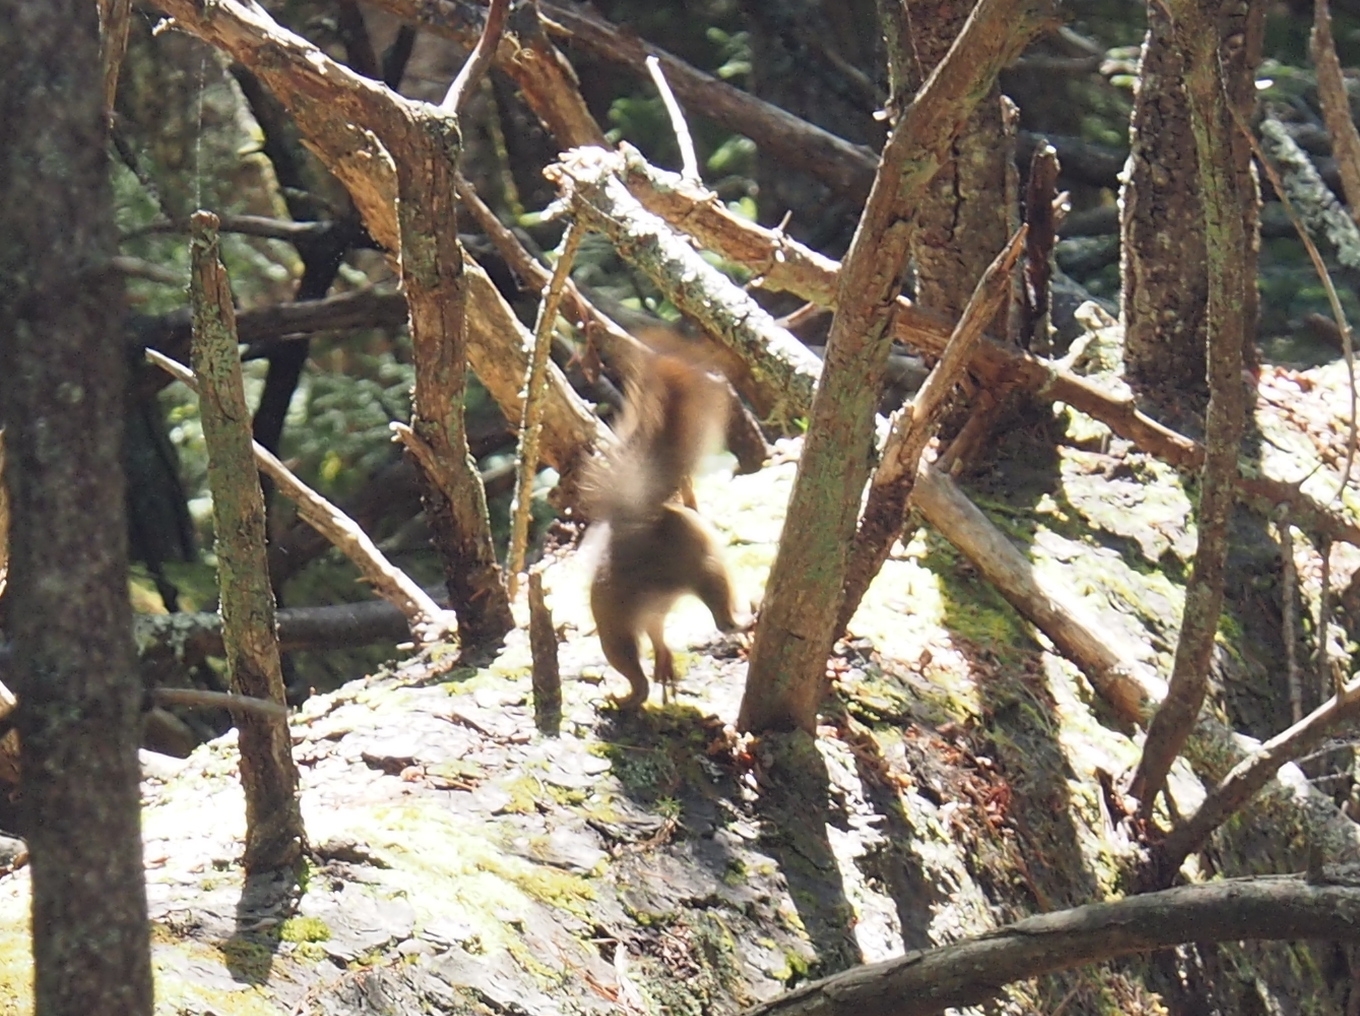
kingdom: Animalia
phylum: Chordata
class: Mammalia
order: Rodentia
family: Sciuridae
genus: Tamiasciurus
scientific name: Tamiasciurus hudsonicus
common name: Red squirrel
